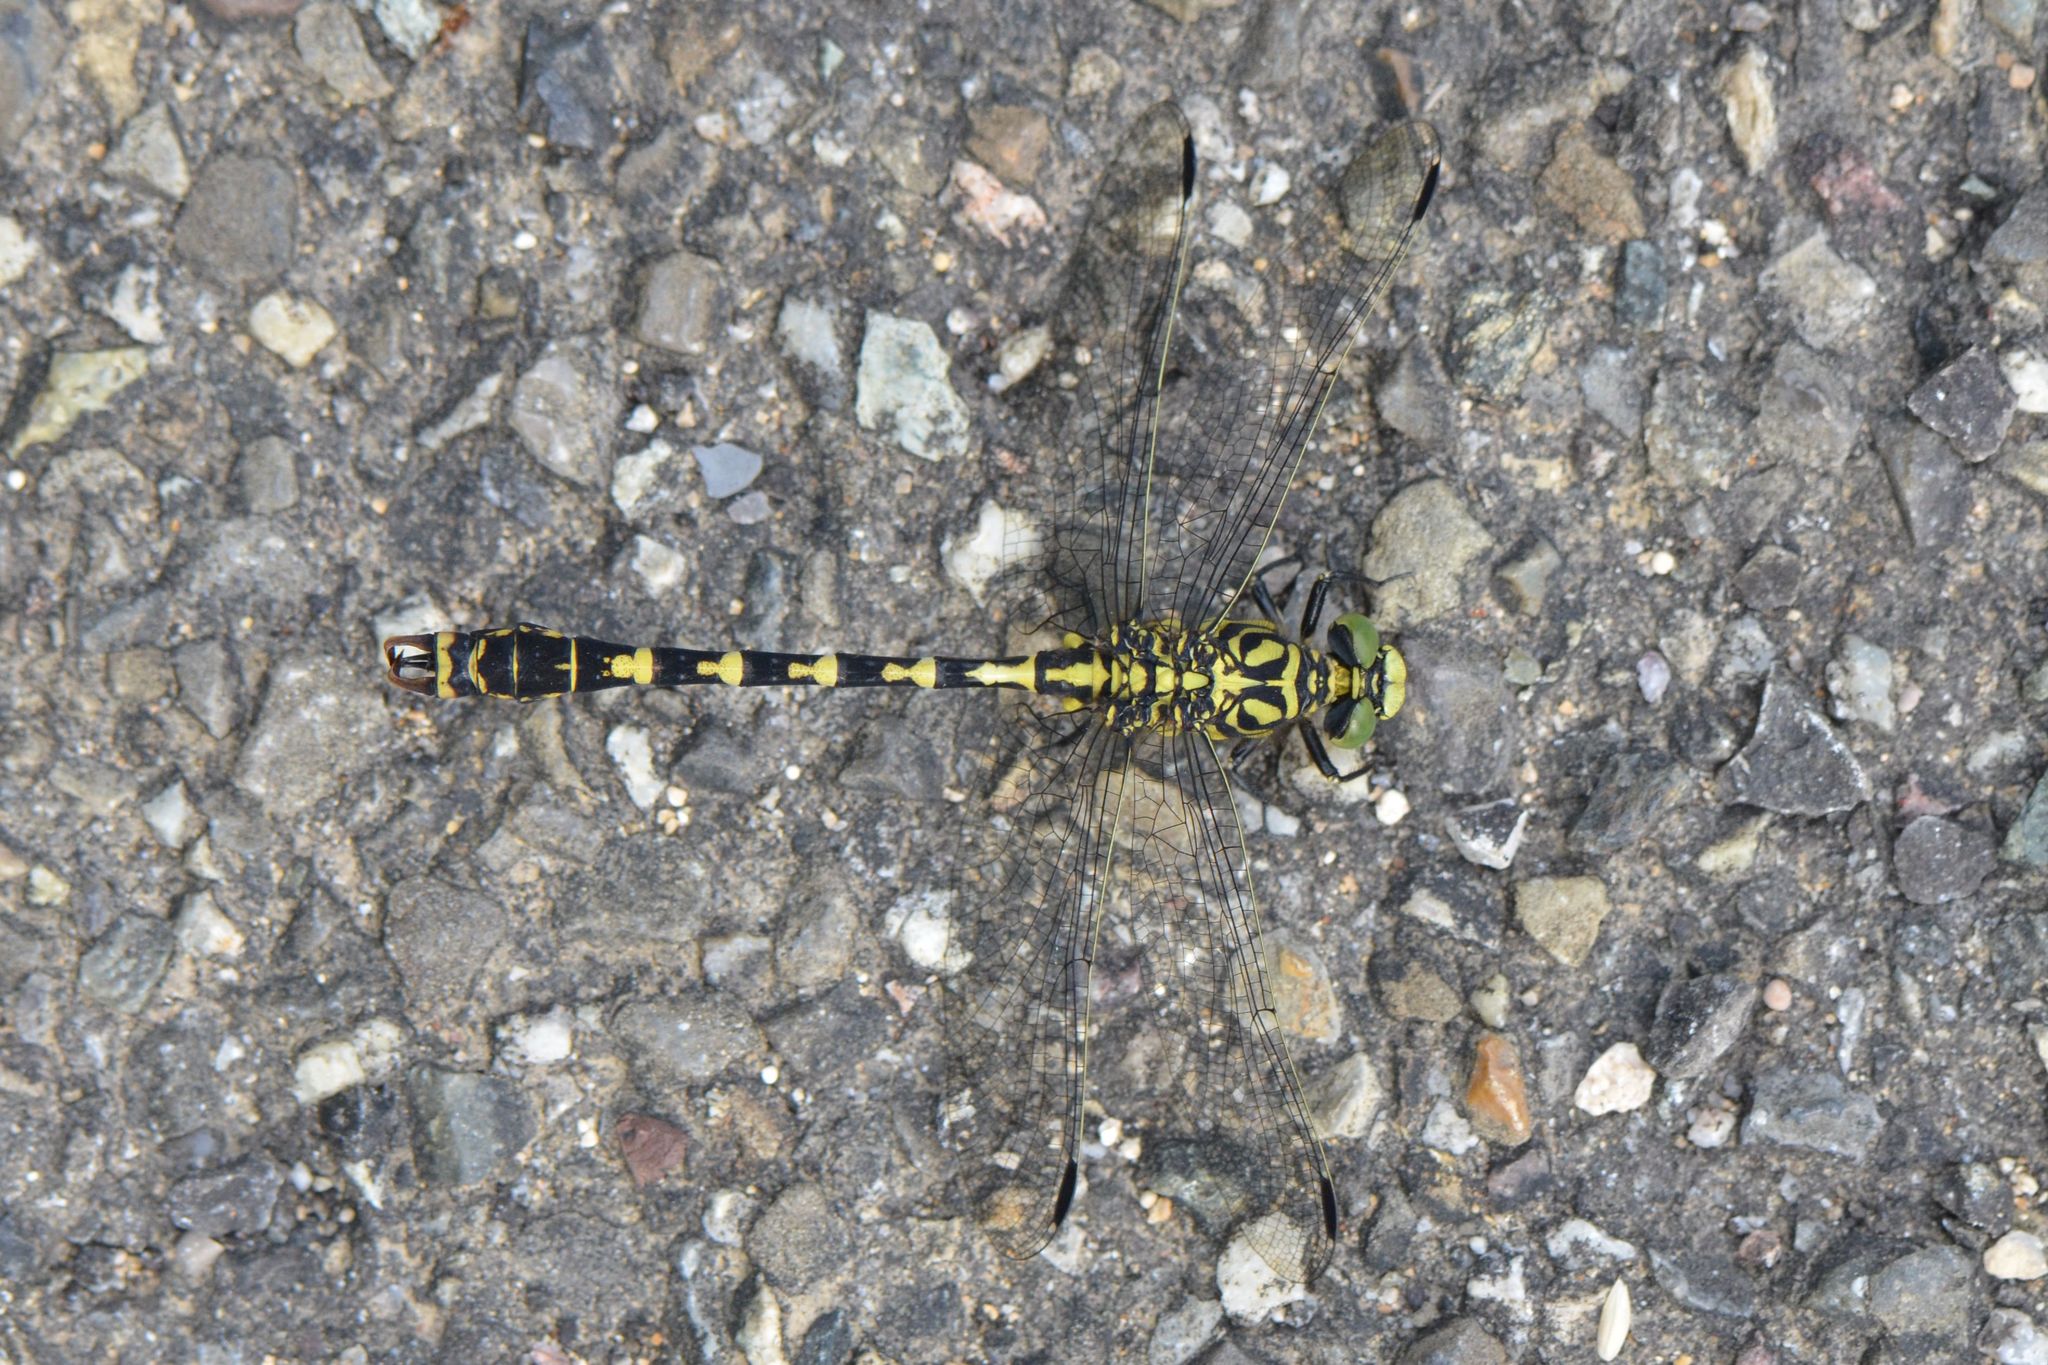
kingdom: Animalia
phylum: Arthropoda
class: Insecta
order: Odonata
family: Gomphidae
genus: Onychogomphus
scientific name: Onychogomphus forcipatus
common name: Small pincertail
